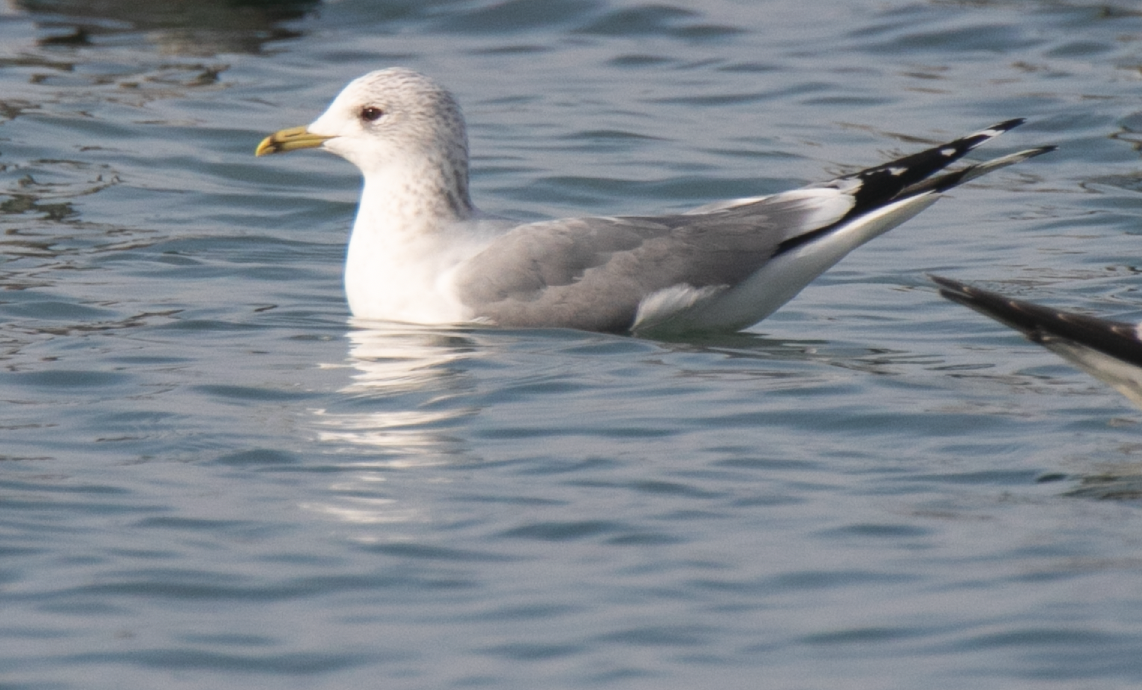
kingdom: Animalia
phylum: Chordata
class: Aves
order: Charadriiformes
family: Laridae
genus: Larus
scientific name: Larus canus
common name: Mew gull
